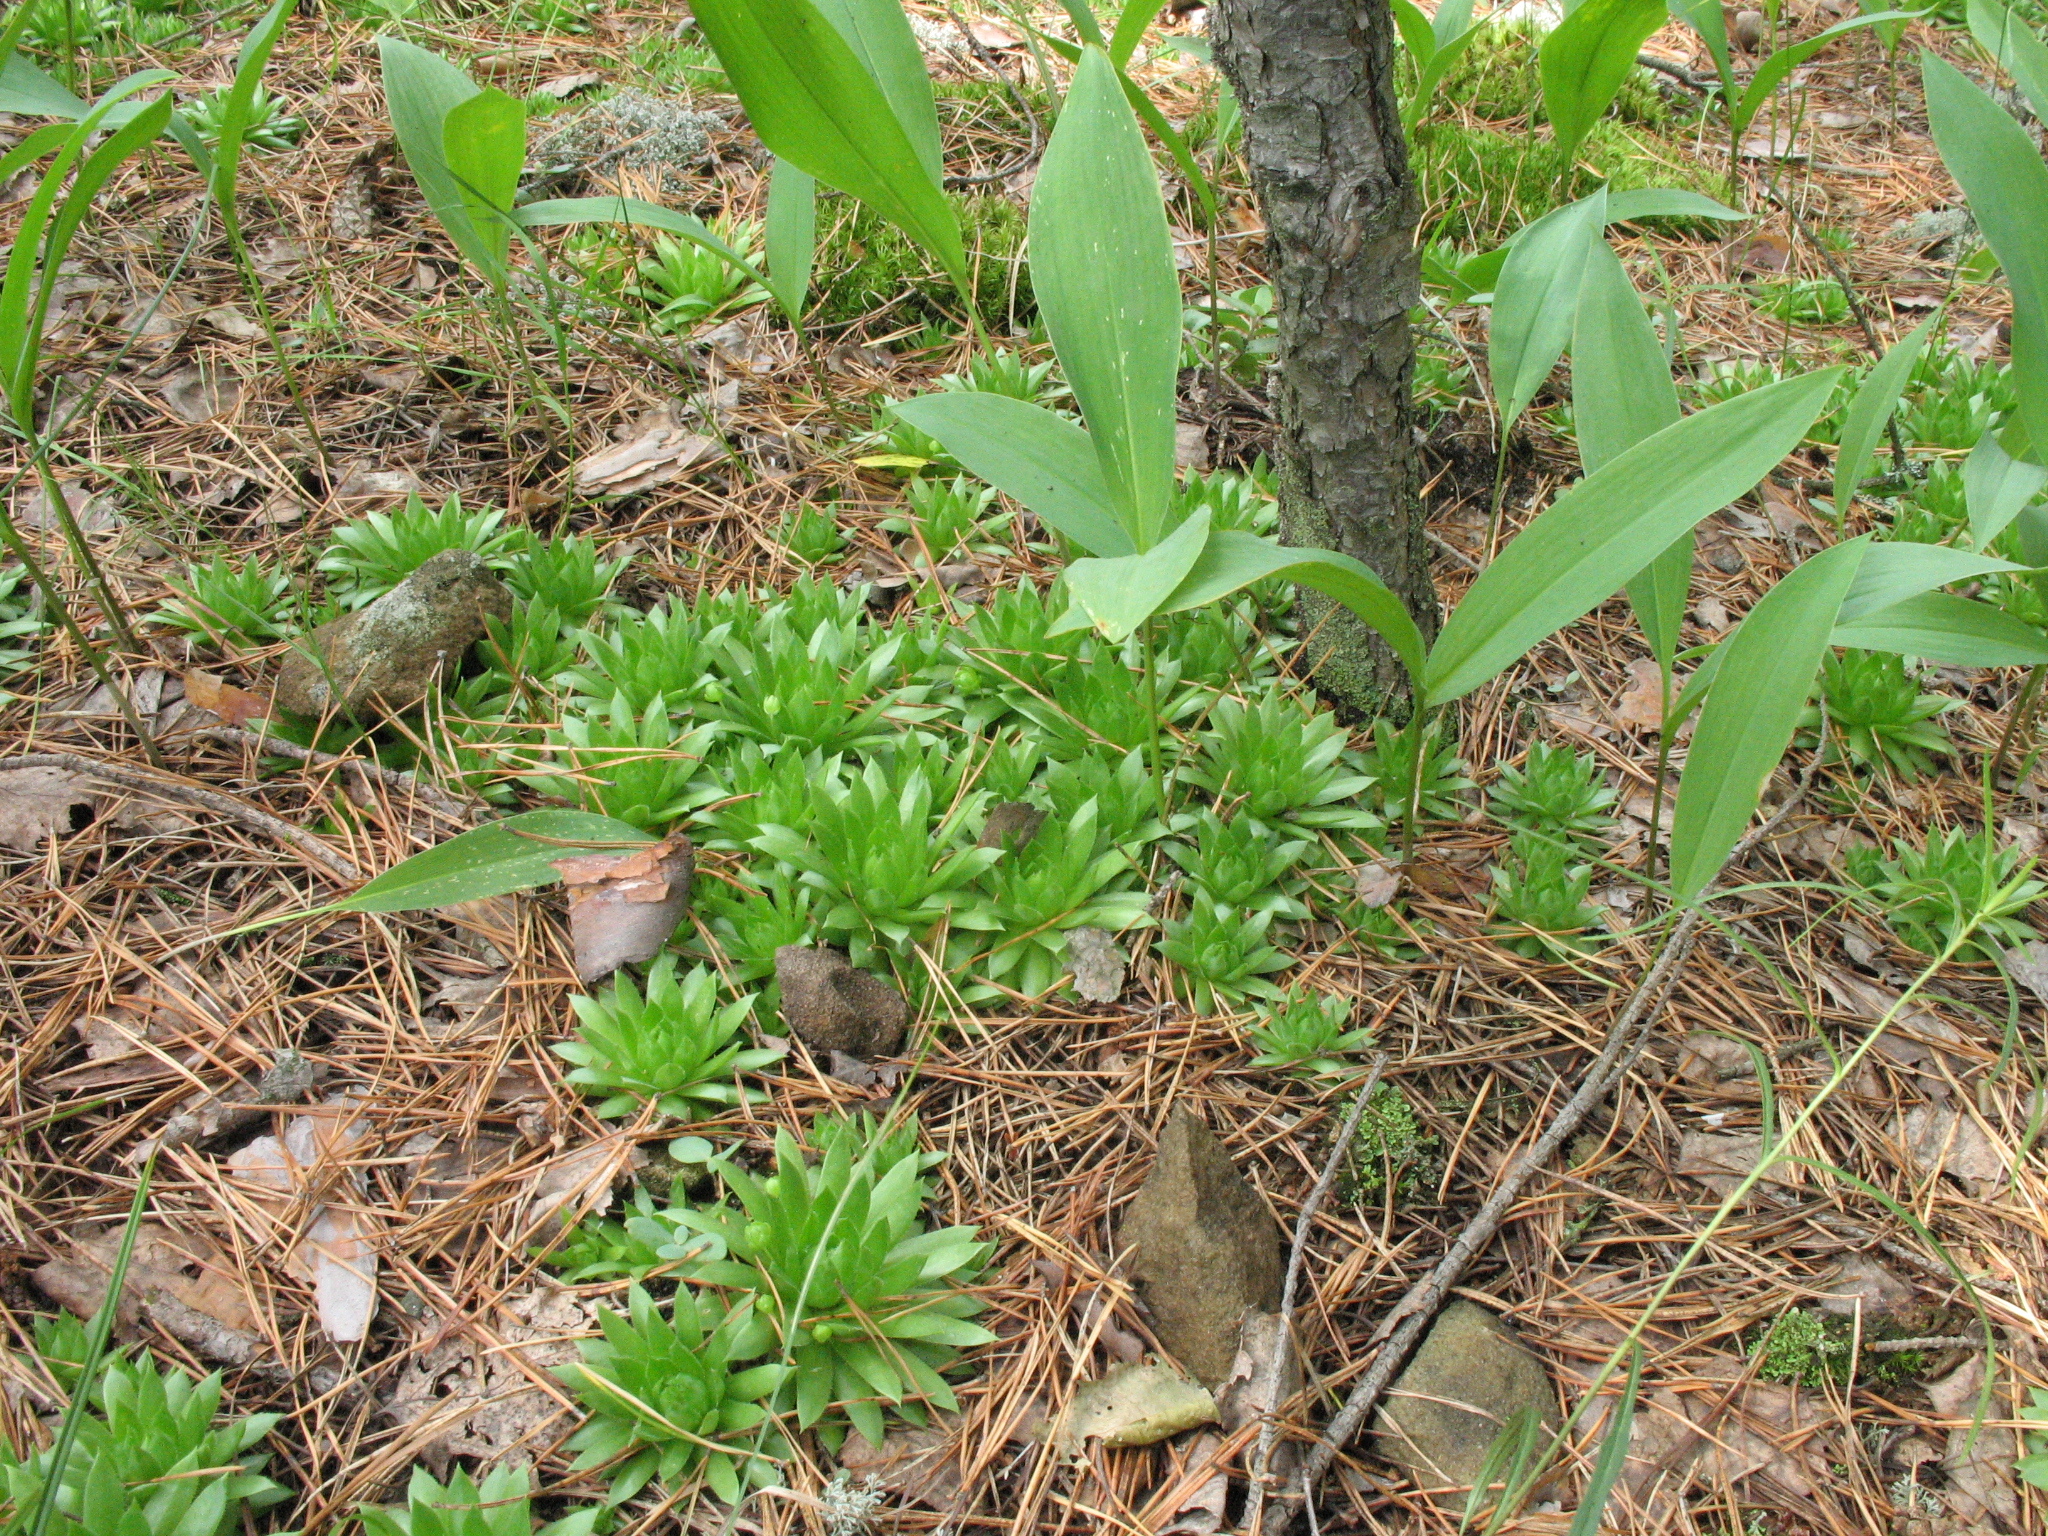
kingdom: Plantae
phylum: Tracheophyta
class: Magnoliopsida
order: Saxifragales
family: Crassulaceae
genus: Sempervivum
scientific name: Sempervivum globiferum
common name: Rolling hen-and-chicks
